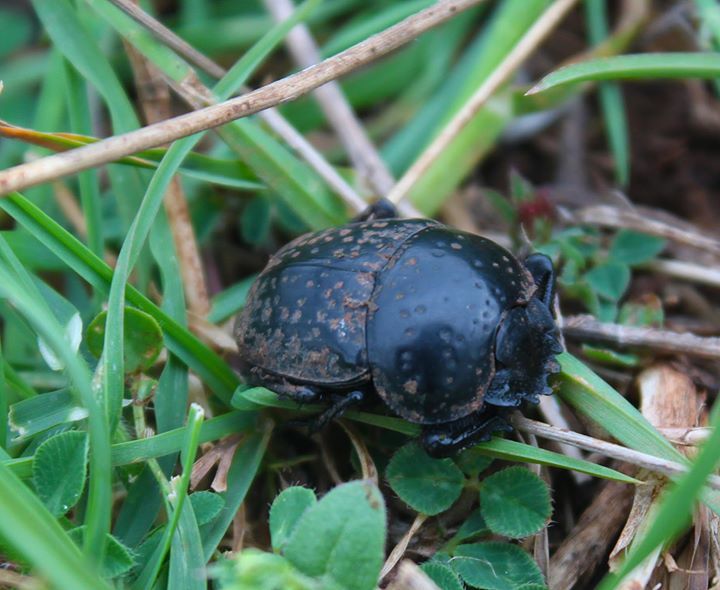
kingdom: Animalia
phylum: Arthropoda
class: Insecta
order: Coleoptera
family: Scarabaeidae
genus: Ateuchetus
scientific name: Ateuchetus
